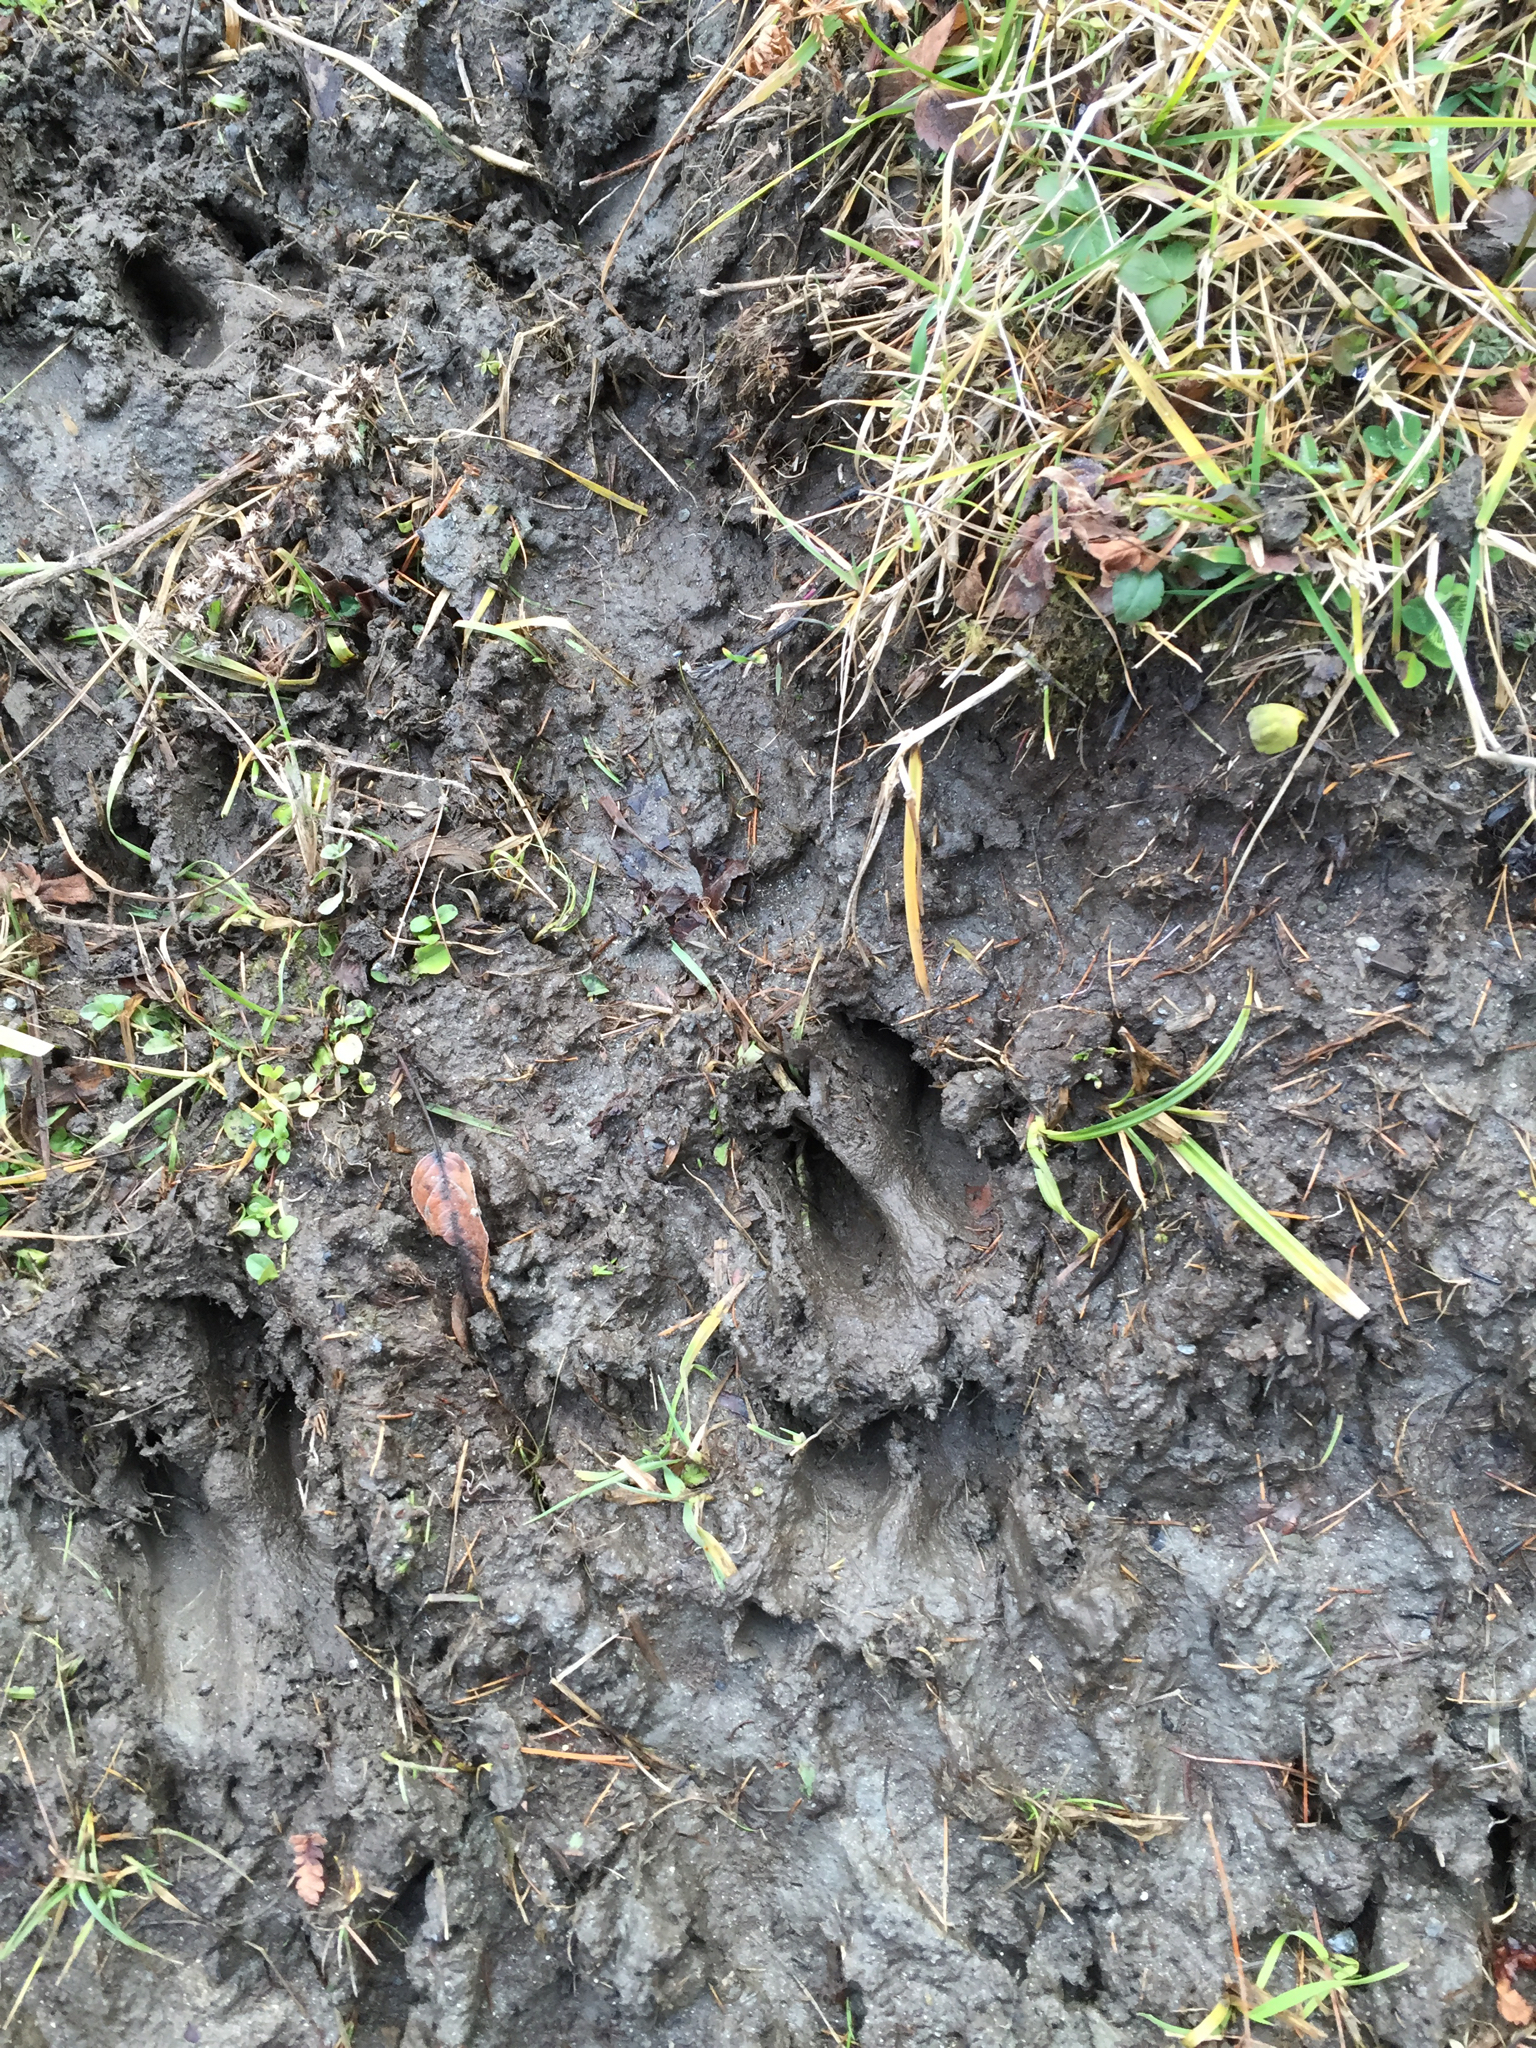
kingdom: Animalia
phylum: Chordata
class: Mammalia
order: Artiodactyla
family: Cervidae
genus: Odocoileus
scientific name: Odocoileus virginianus
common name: White-tailed deer
